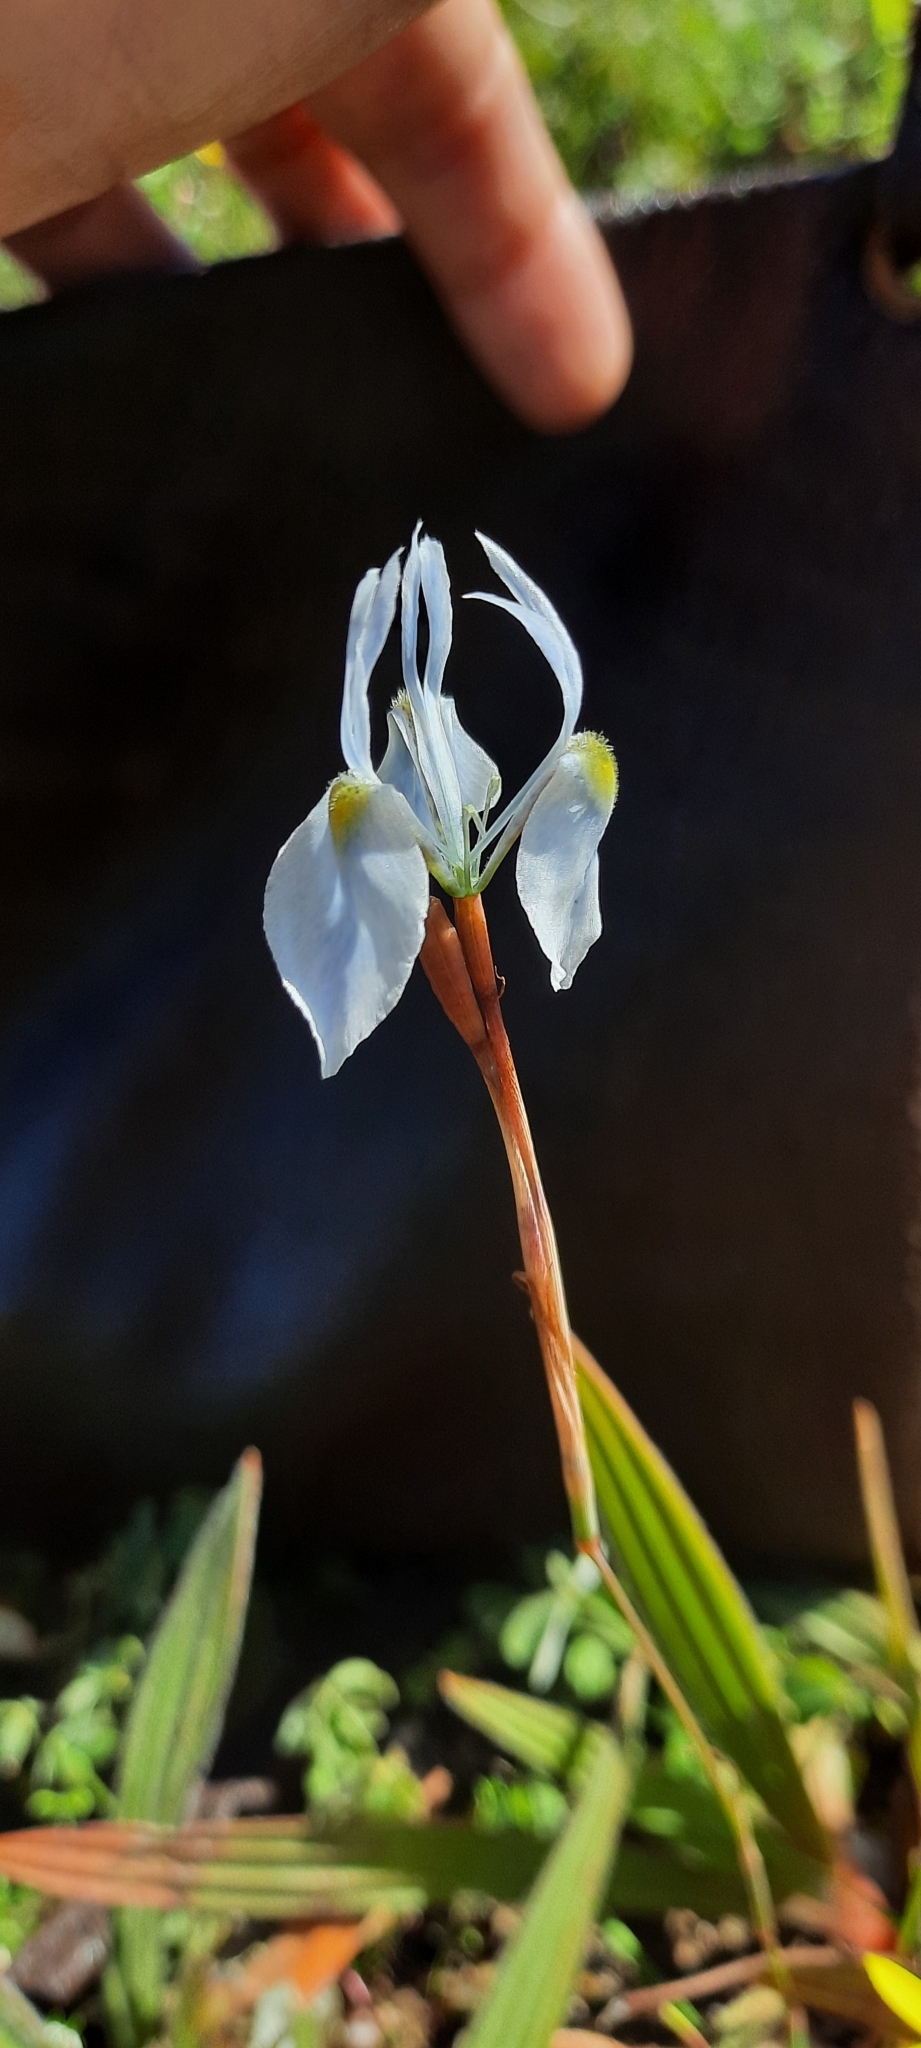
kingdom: Plantae
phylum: Tracheophyta
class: Liliopsida
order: Asparagales
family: Iridaceae
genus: Moraea
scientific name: Moraea tripetala
